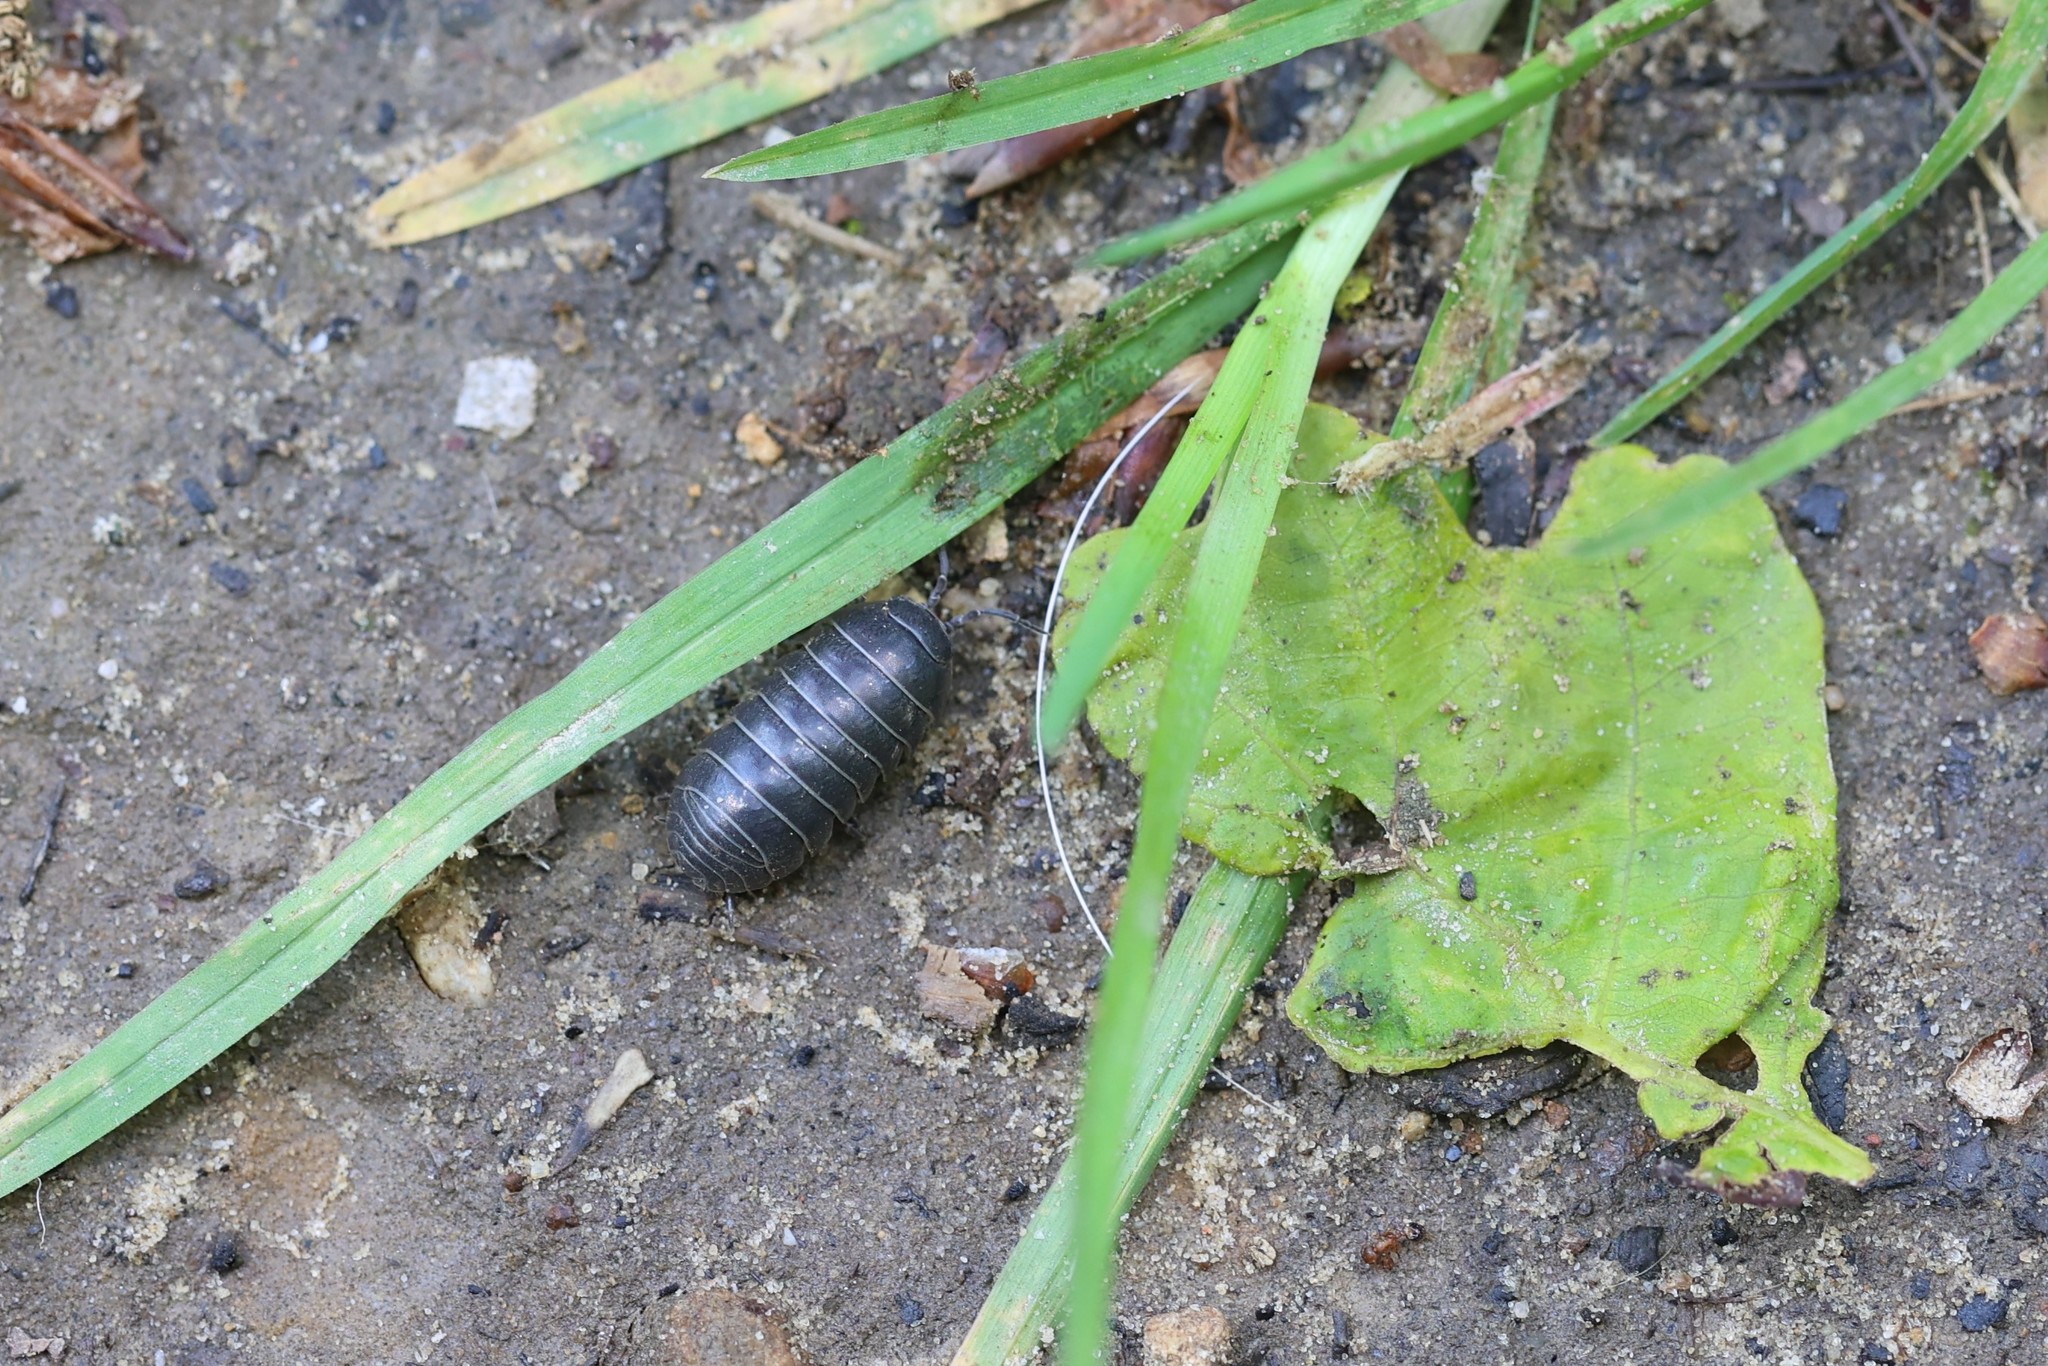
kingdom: Animalia
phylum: Arthropoda
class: Malacostraca
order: Isopoda
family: Armadillidiidae
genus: Armadillidium
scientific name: Armadillidium vulgare
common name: Common pill woodlouse
